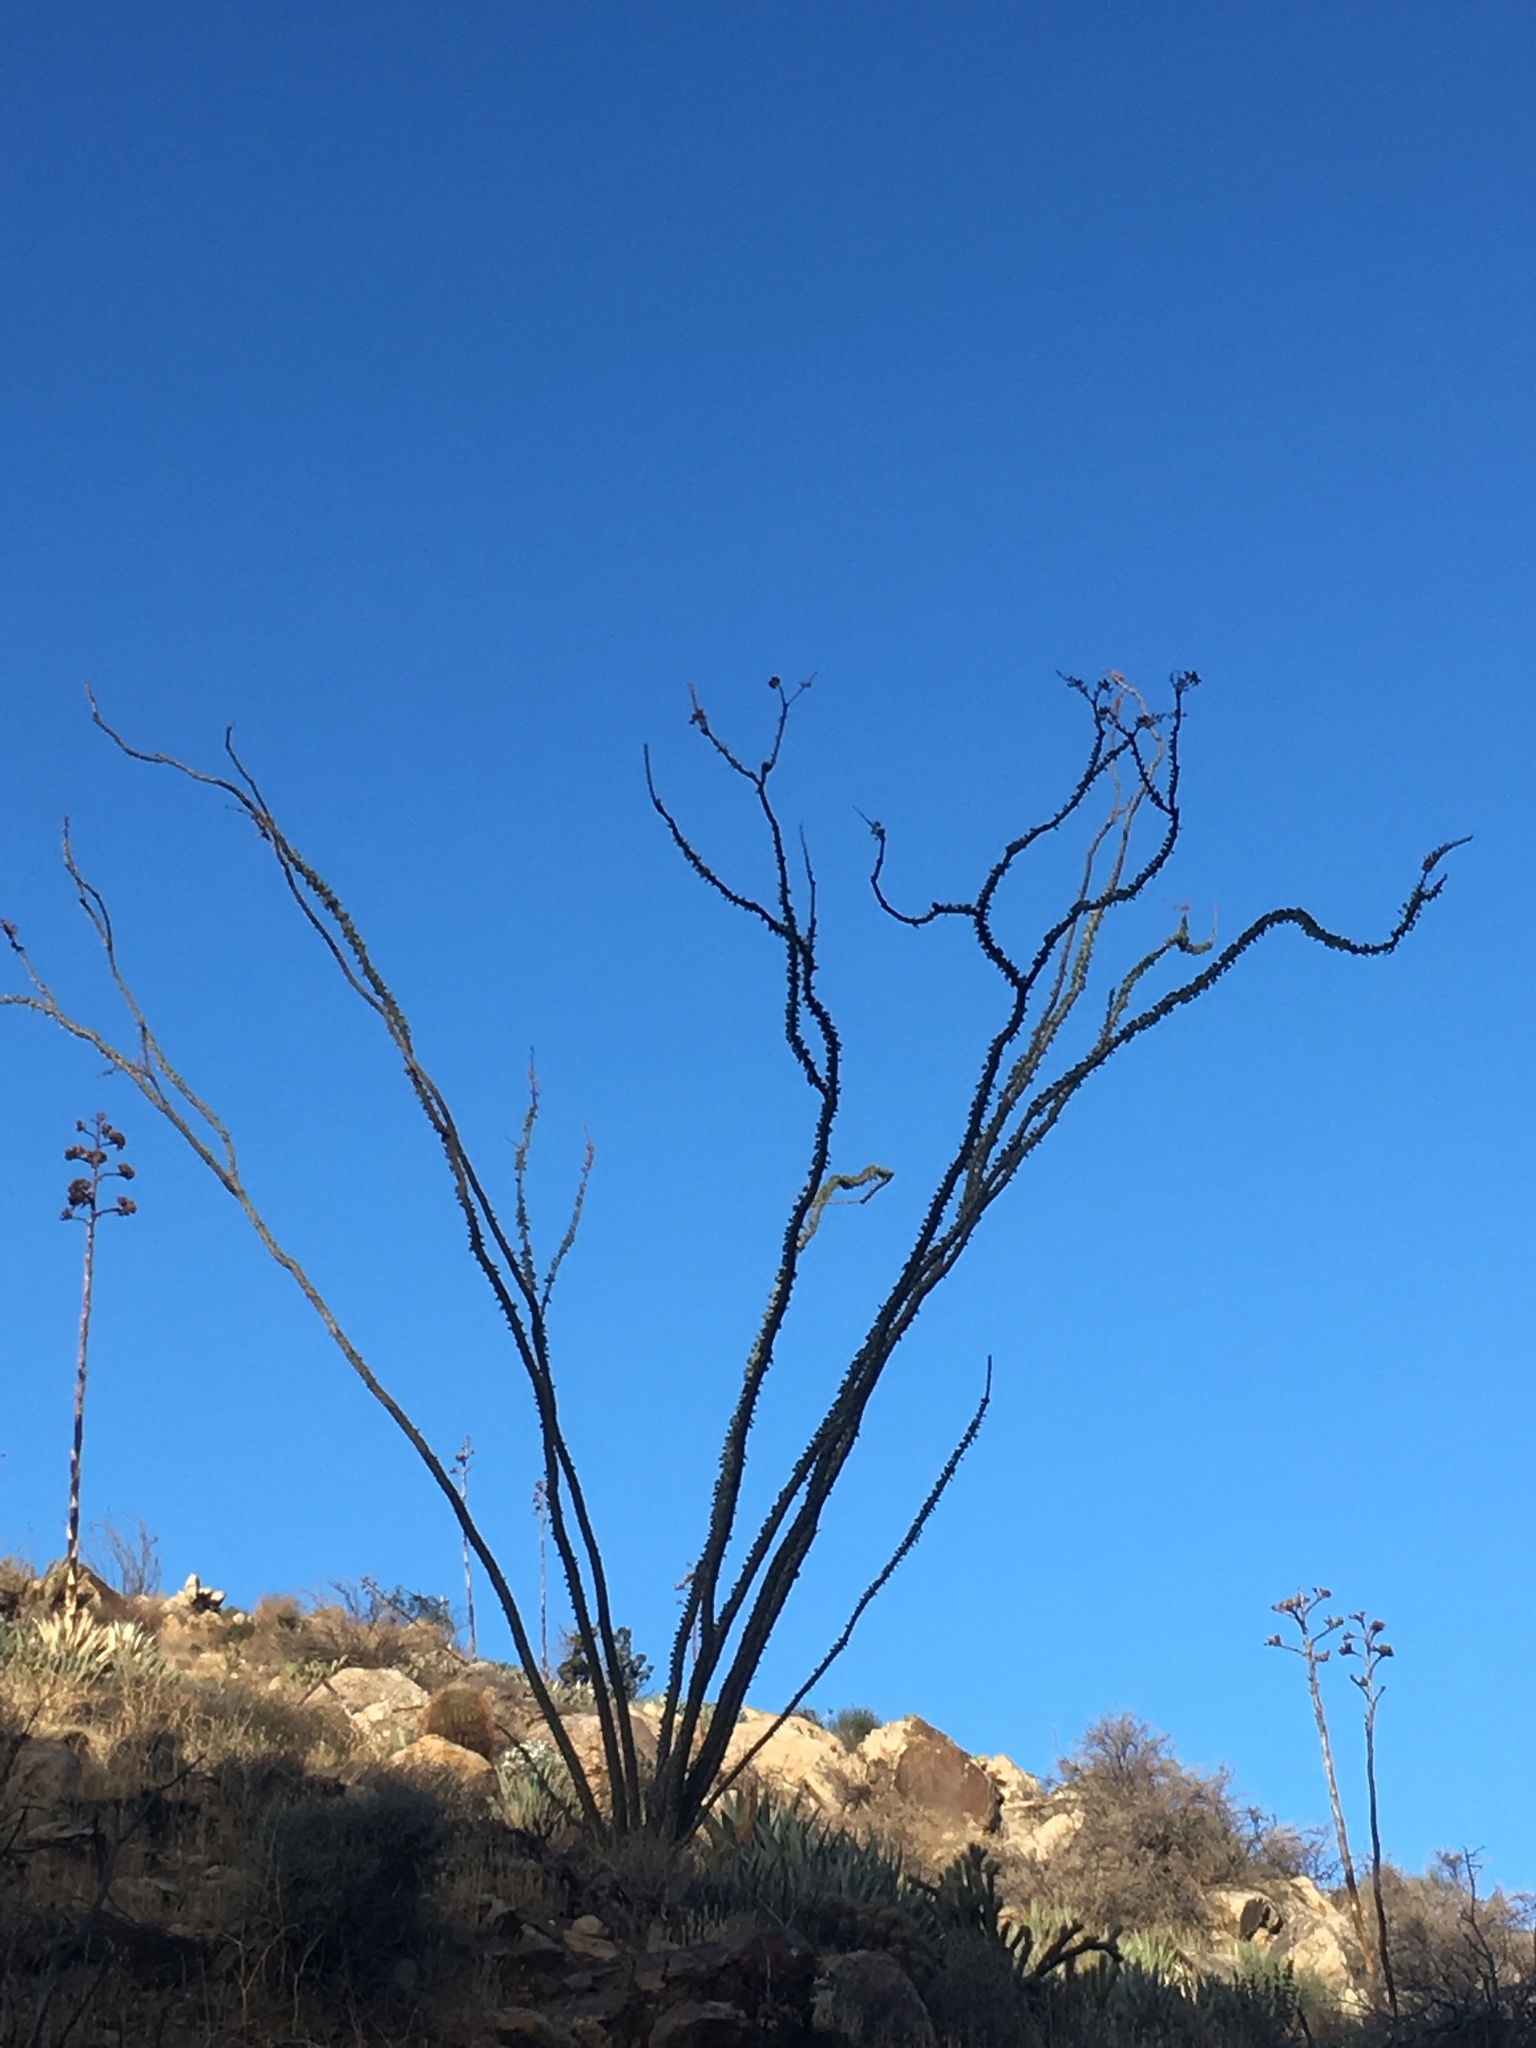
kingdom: Plantae
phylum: Tracheophyta
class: Magnoliopsida
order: Ericales
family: Fouquieriaceae
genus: Fouquieria
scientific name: Fouquieria splendens
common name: Vine-cactus
